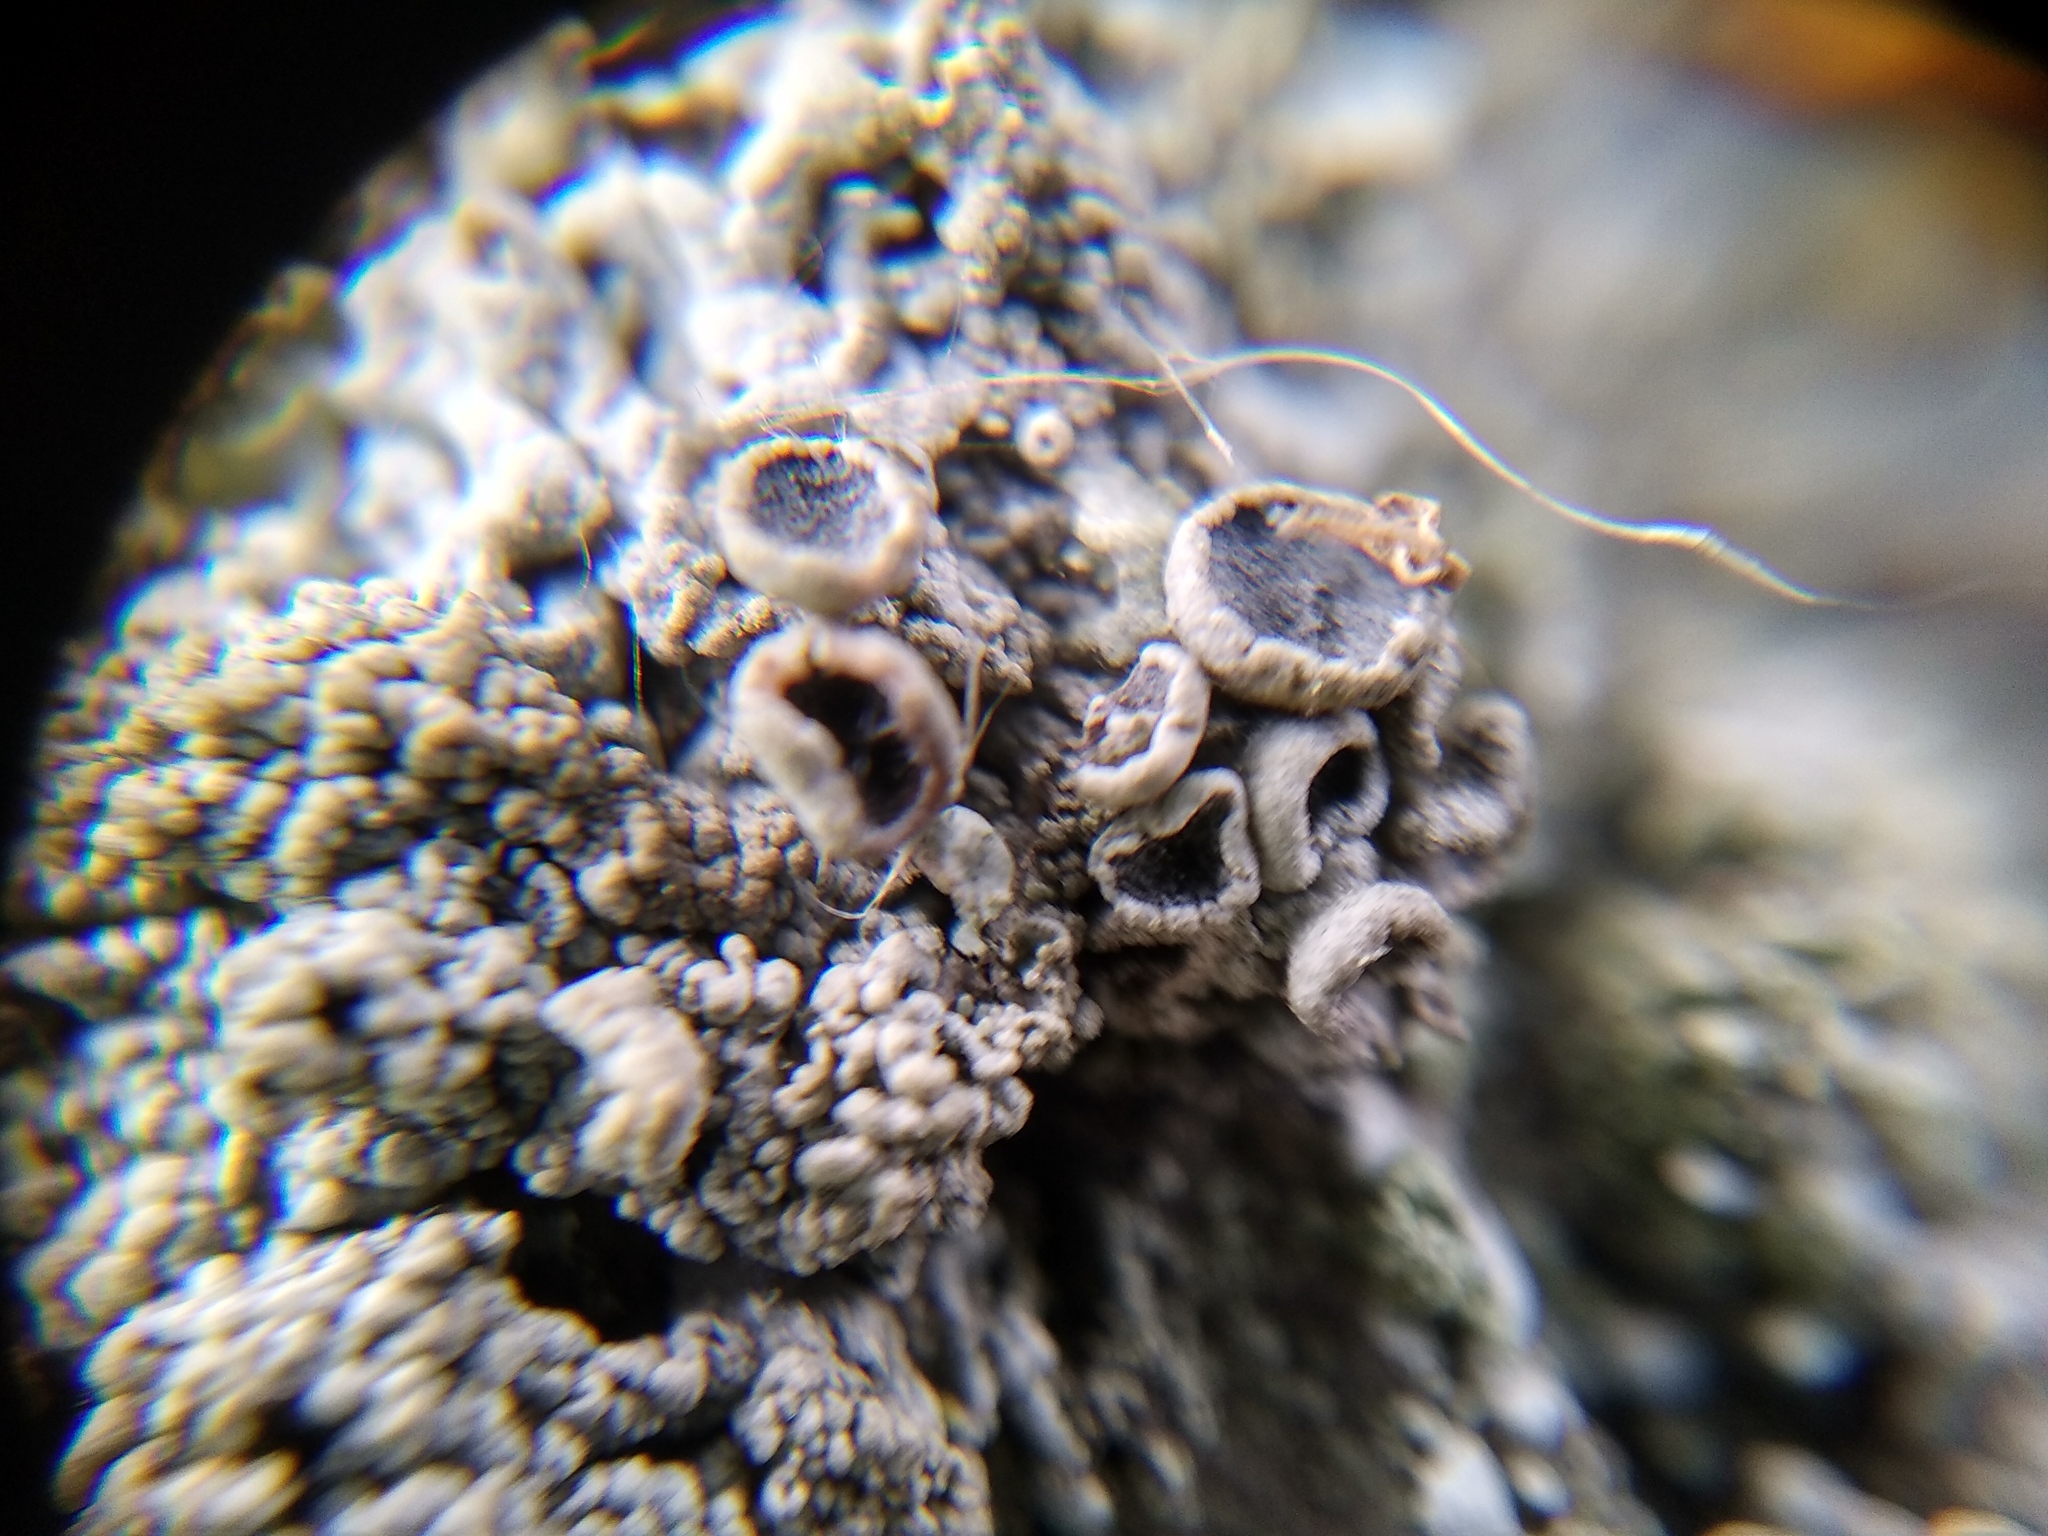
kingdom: Fungi
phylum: Ascomycota
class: Lecanoromycetes
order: Caliciales
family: Physciaceae
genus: Physcia
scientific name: Physcia stellaris
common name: Star rosette lichen
